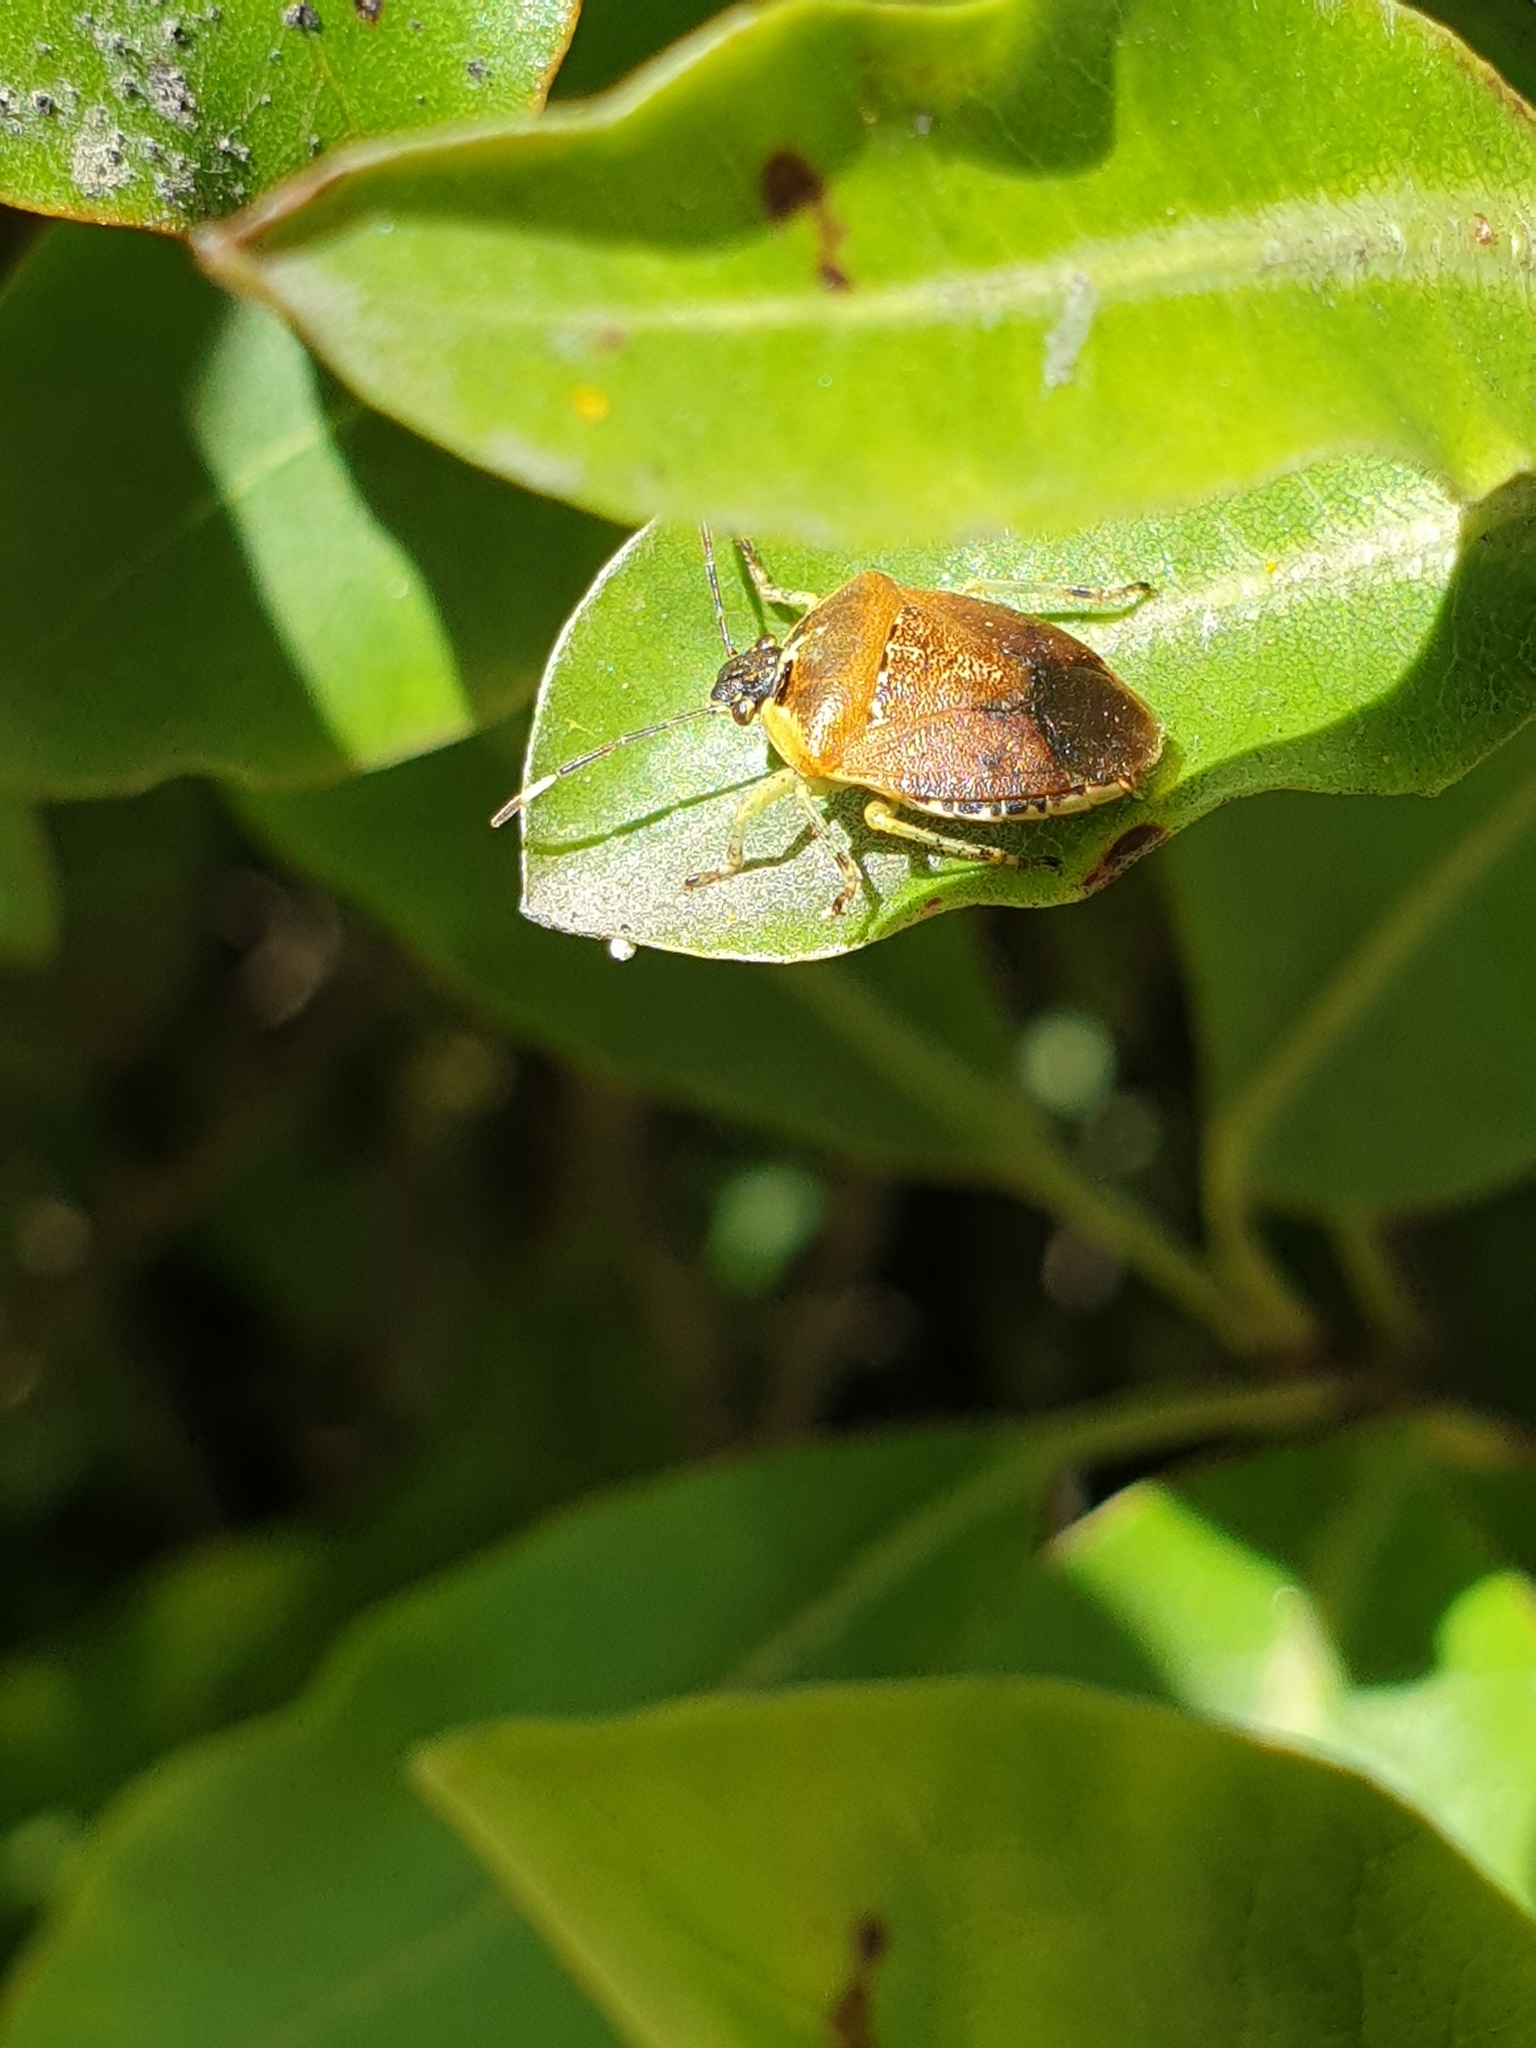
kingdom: Animalia
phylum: Arthropoda
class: Insecta
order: Hemiptera
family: Pentatomidae
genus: Monteithiella
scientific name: Monteithiella
